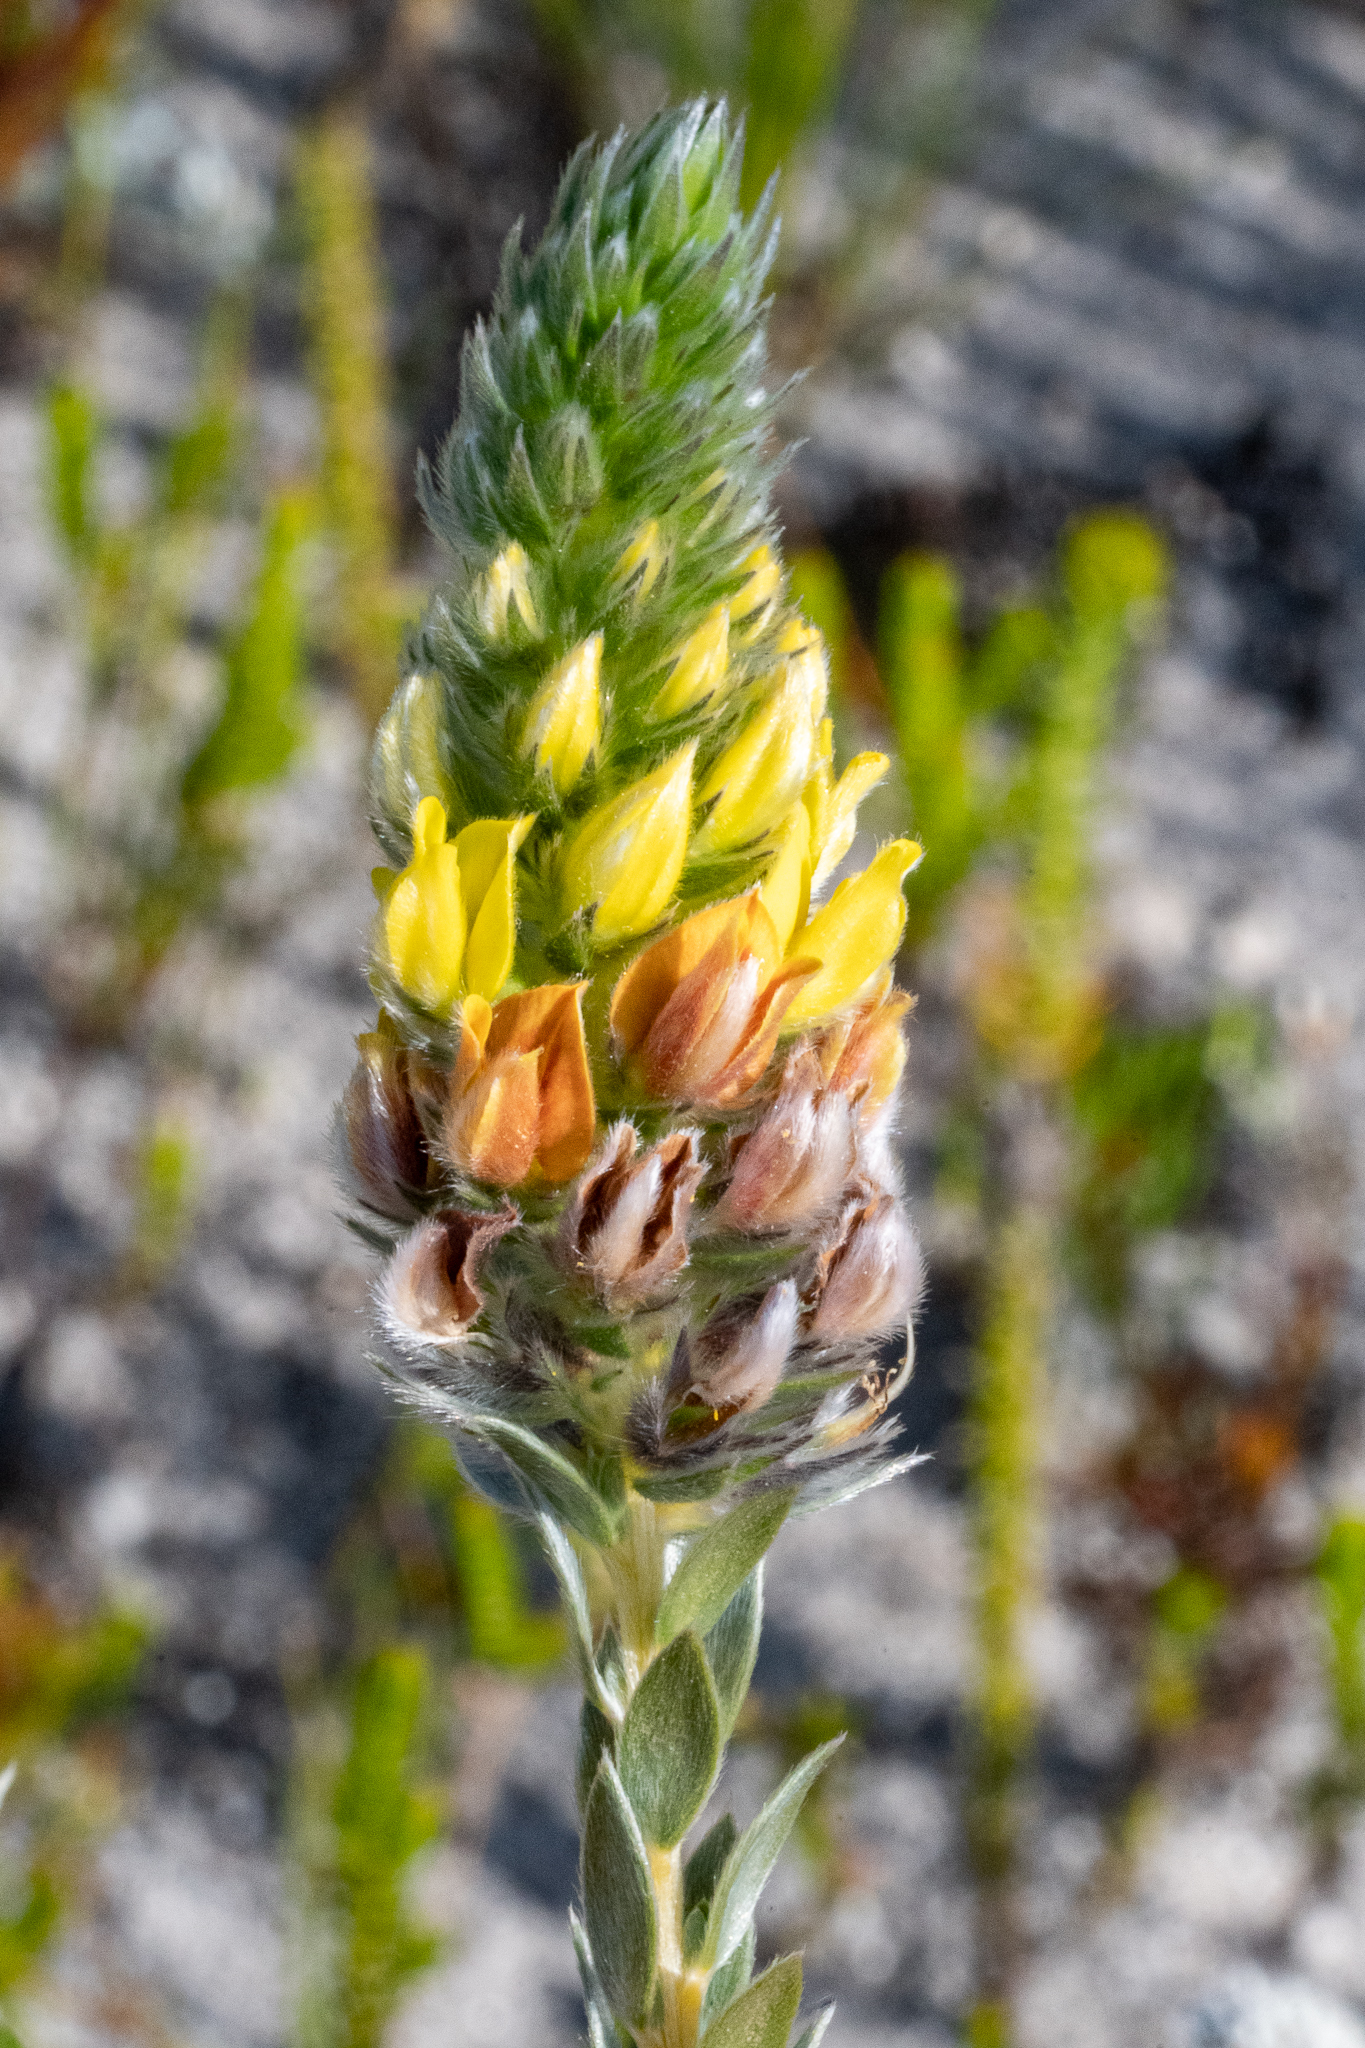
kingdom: Plantae
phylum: Tracheophyta
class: Magnoliopsida
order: Fabales
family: Fabaceae
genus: Aspalathus
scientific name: Aspalathus sericea
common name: Silky pea
